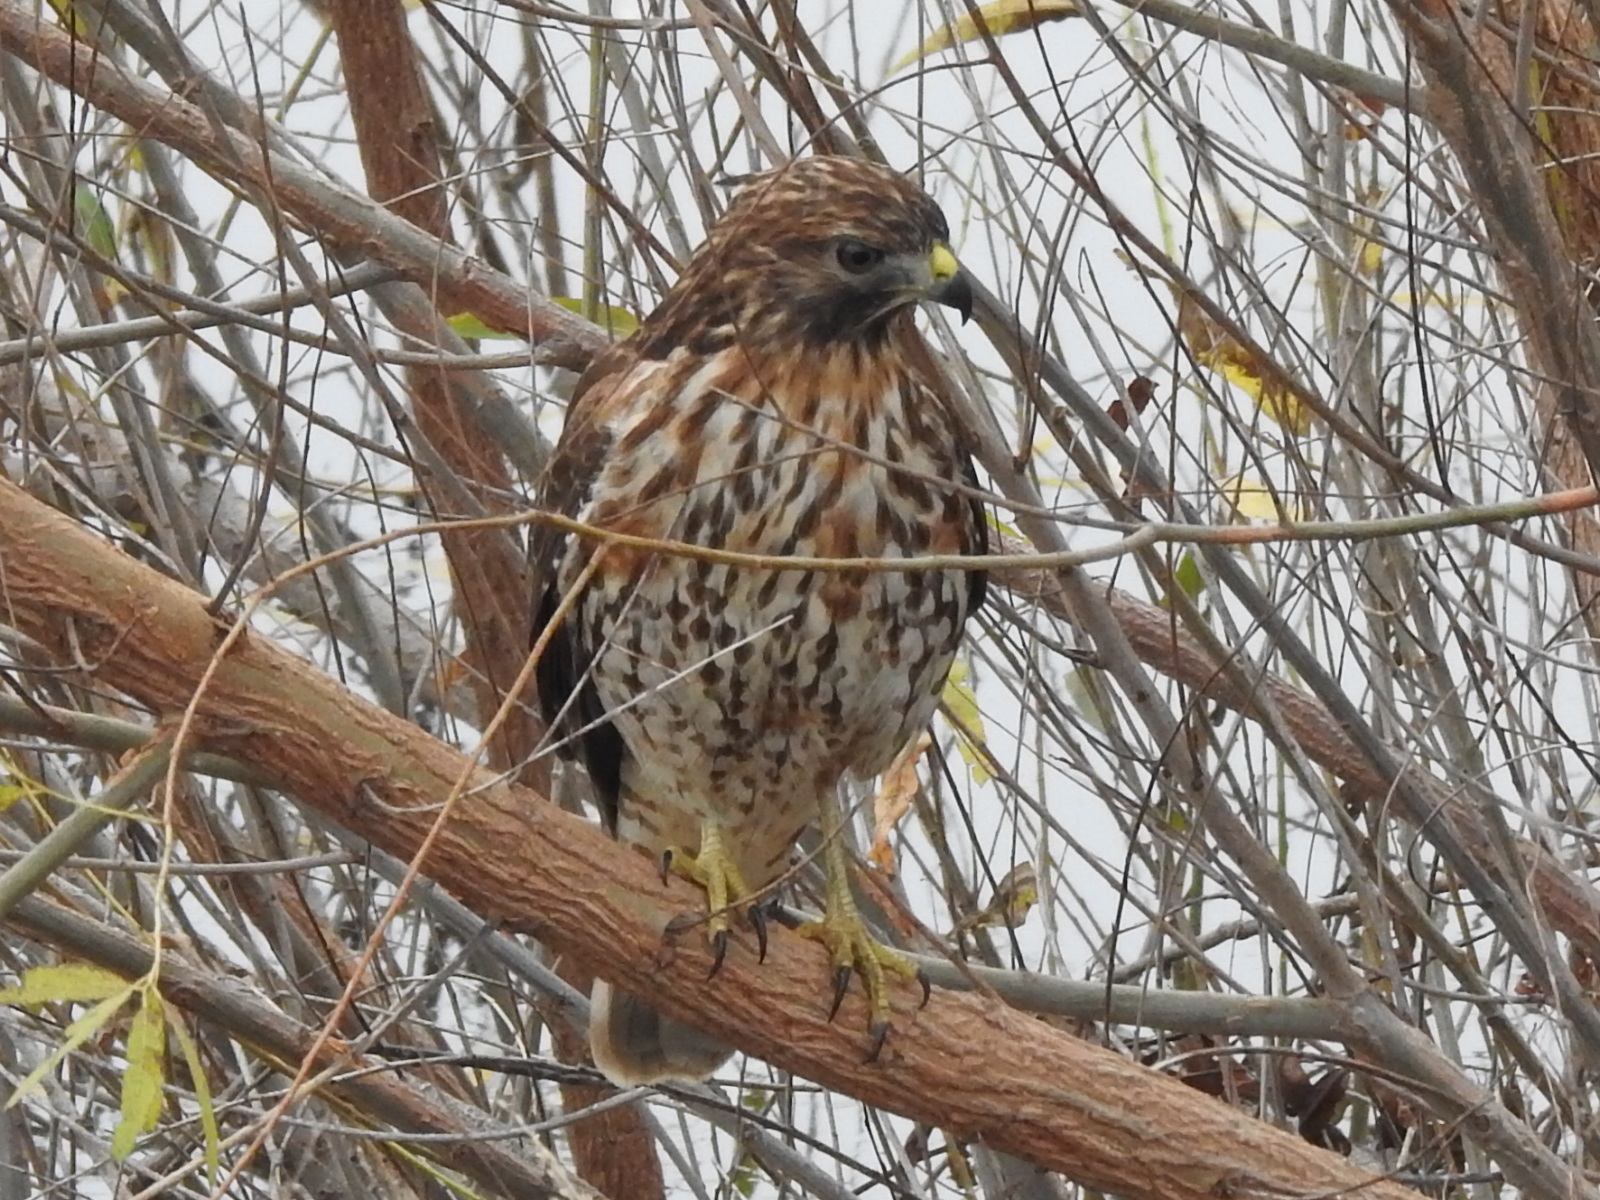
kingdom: Animalia
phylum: Chordata
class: Aves
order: Accipitriformes
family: Accipitridae
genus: Buteo
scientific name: Buteo lineatus
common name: Red-shouldered hawk
